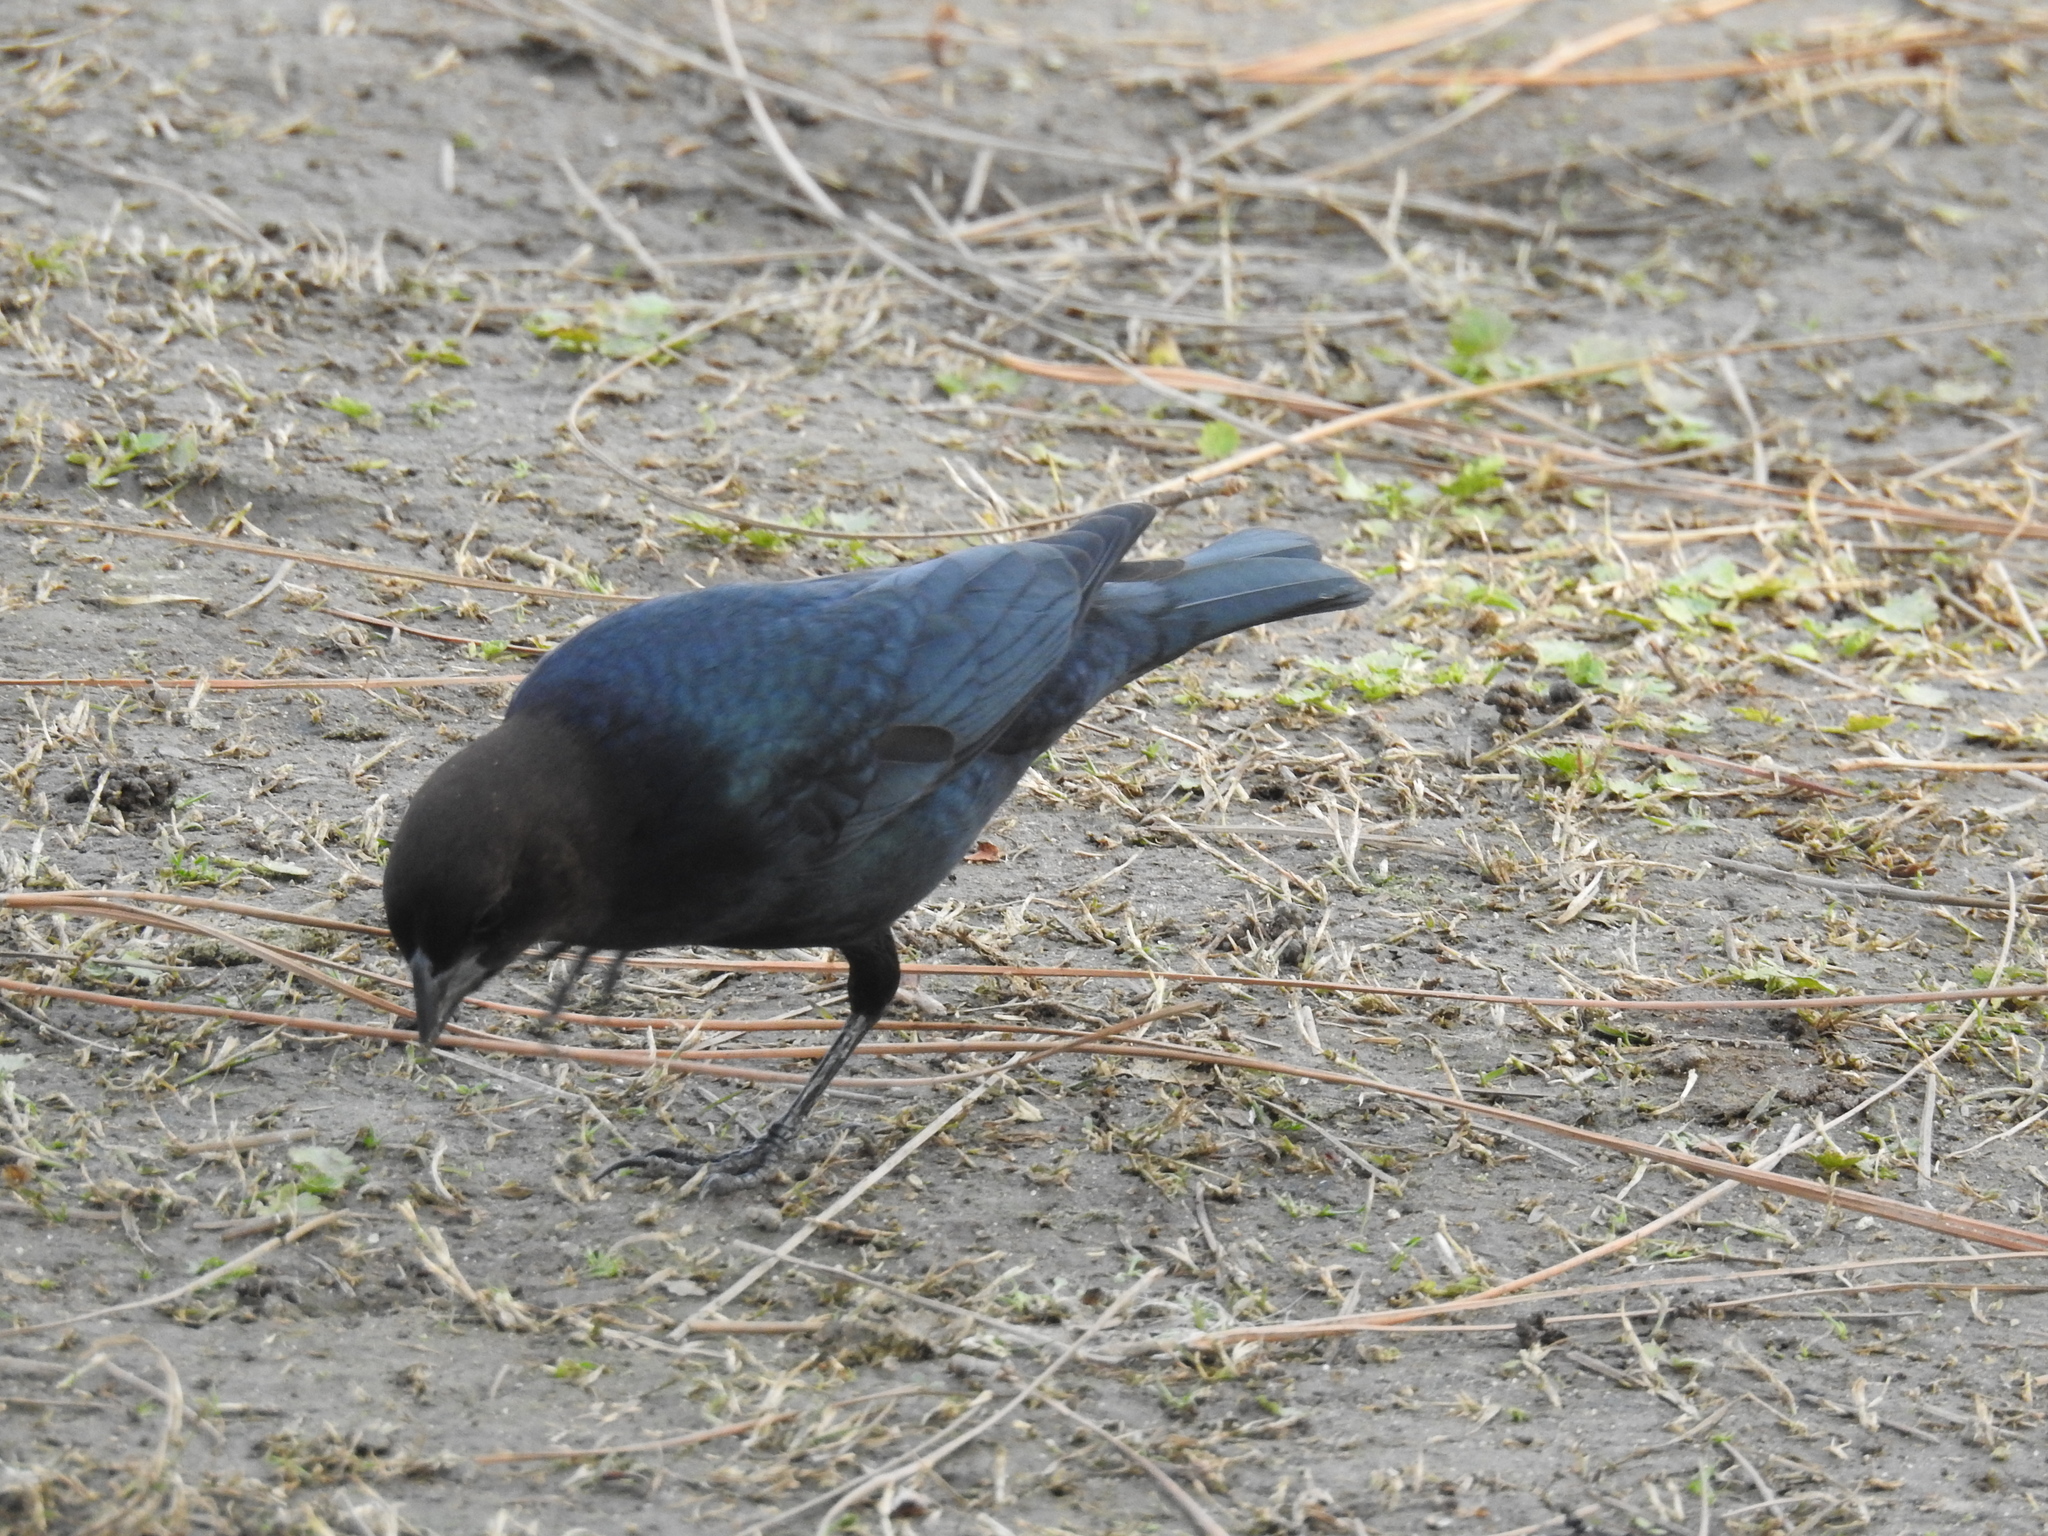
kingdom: Animalia
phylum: Chordata
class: Aves
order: Passeriformes
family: Icteridae
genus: Molothrus
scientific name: Molothrus ater
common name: Brown-headed cowbird
